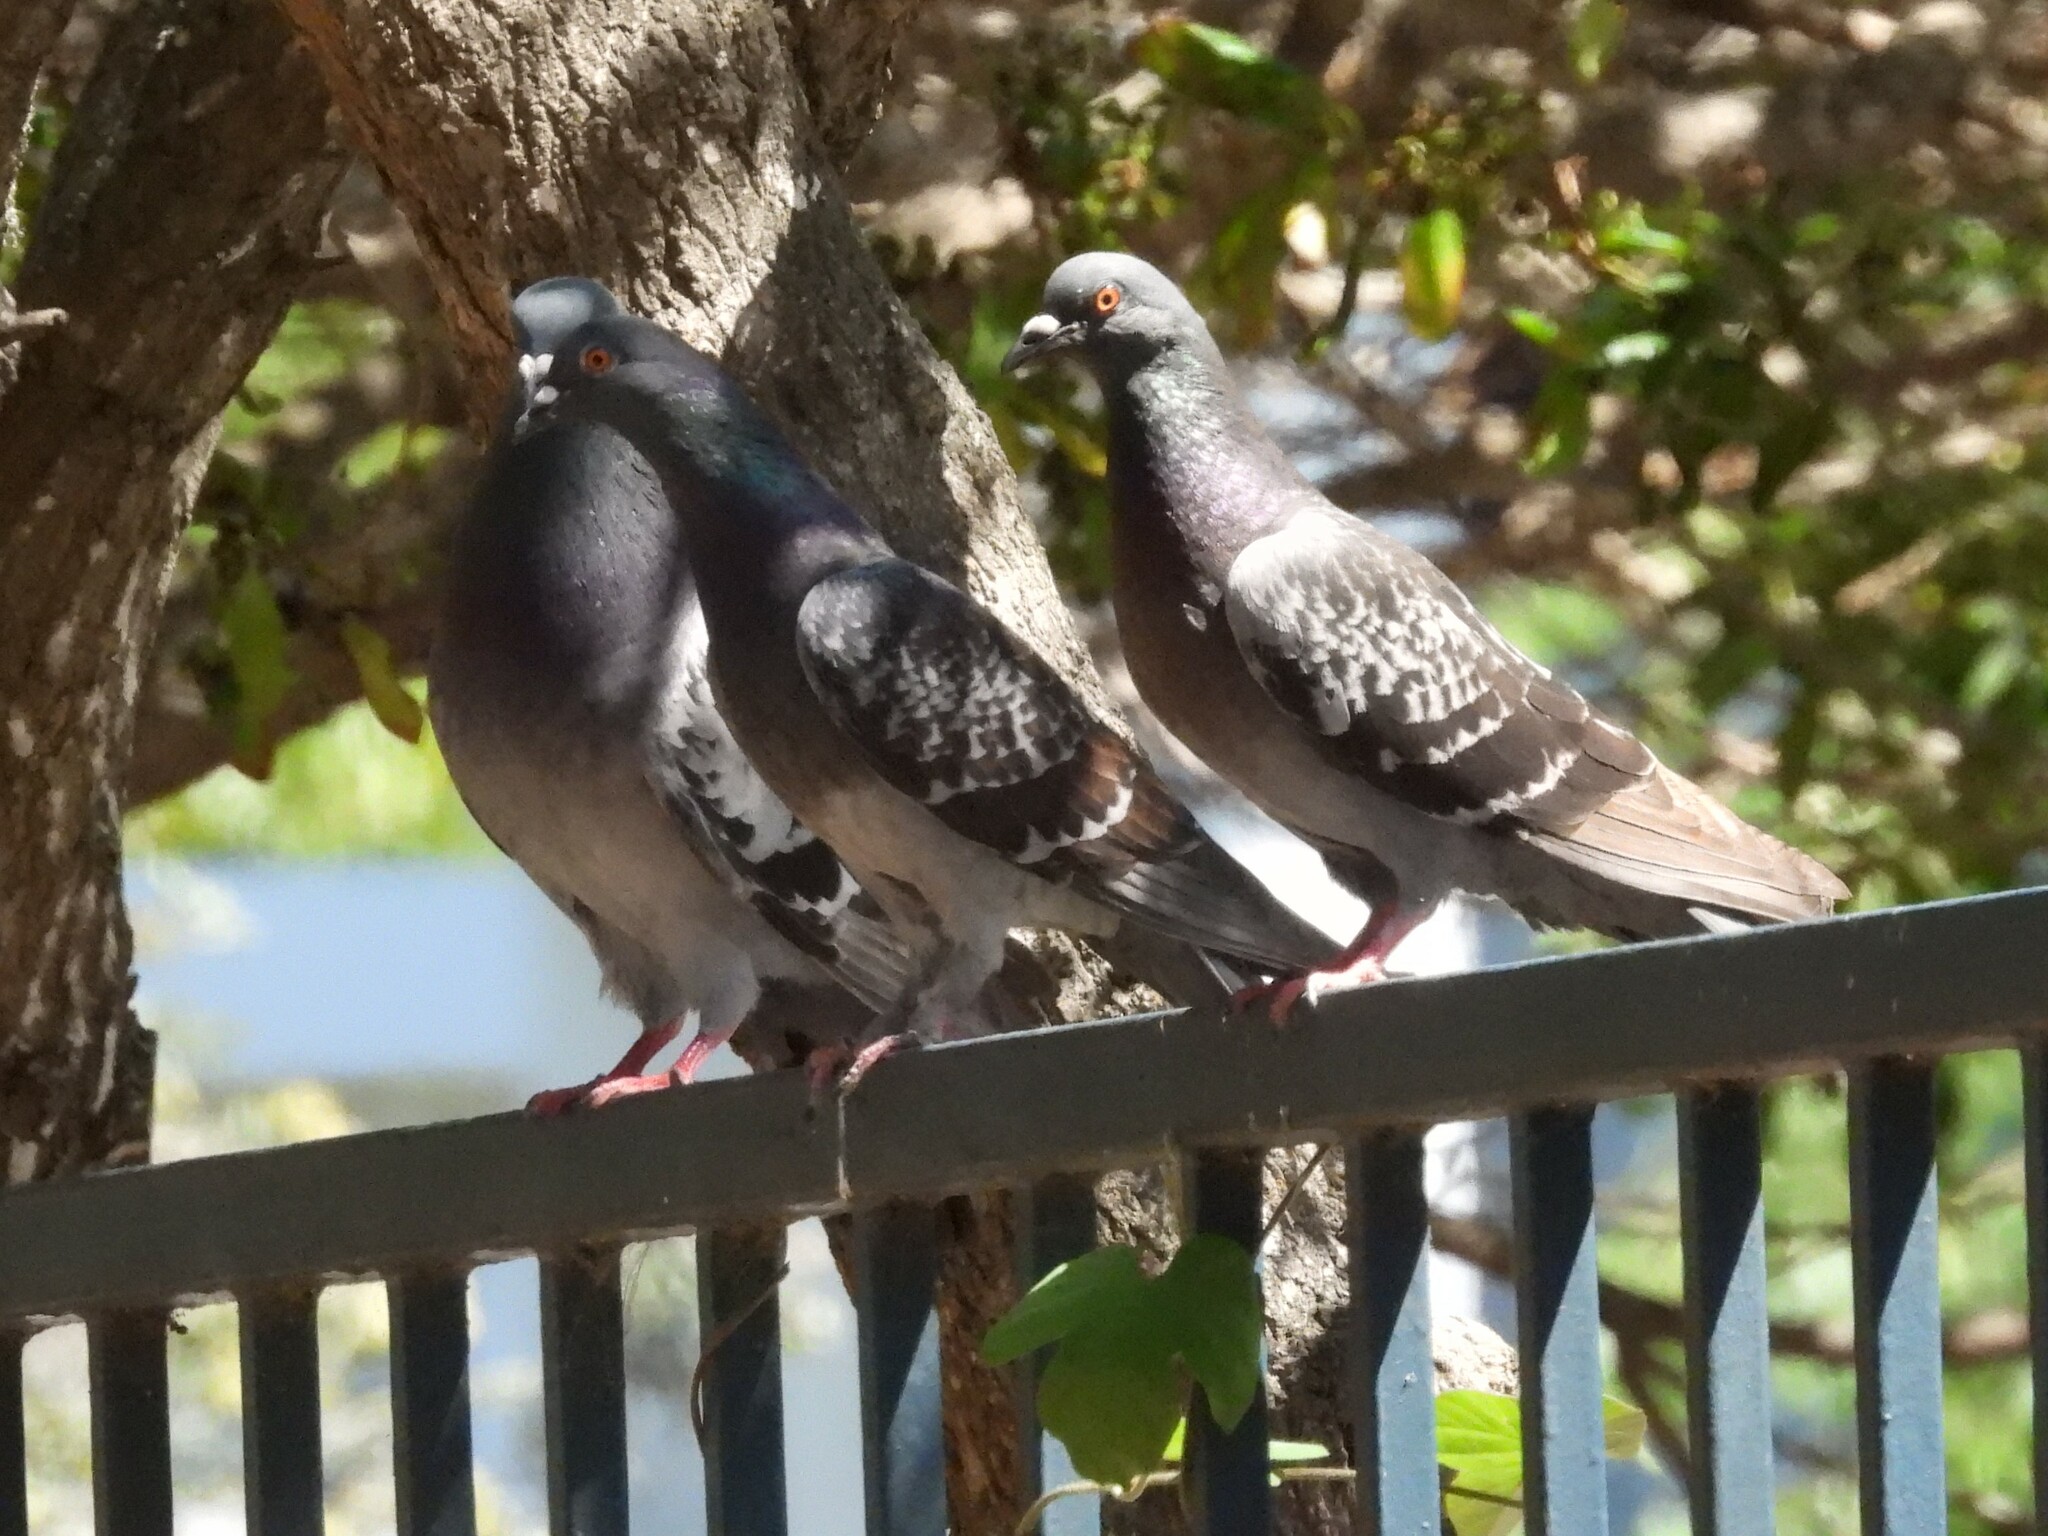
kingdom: Animalia
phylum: Chordata
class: Aves
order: Columbiformes
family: Columbidae
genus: Columba
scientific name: Columba livia
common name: Rock pigeon
